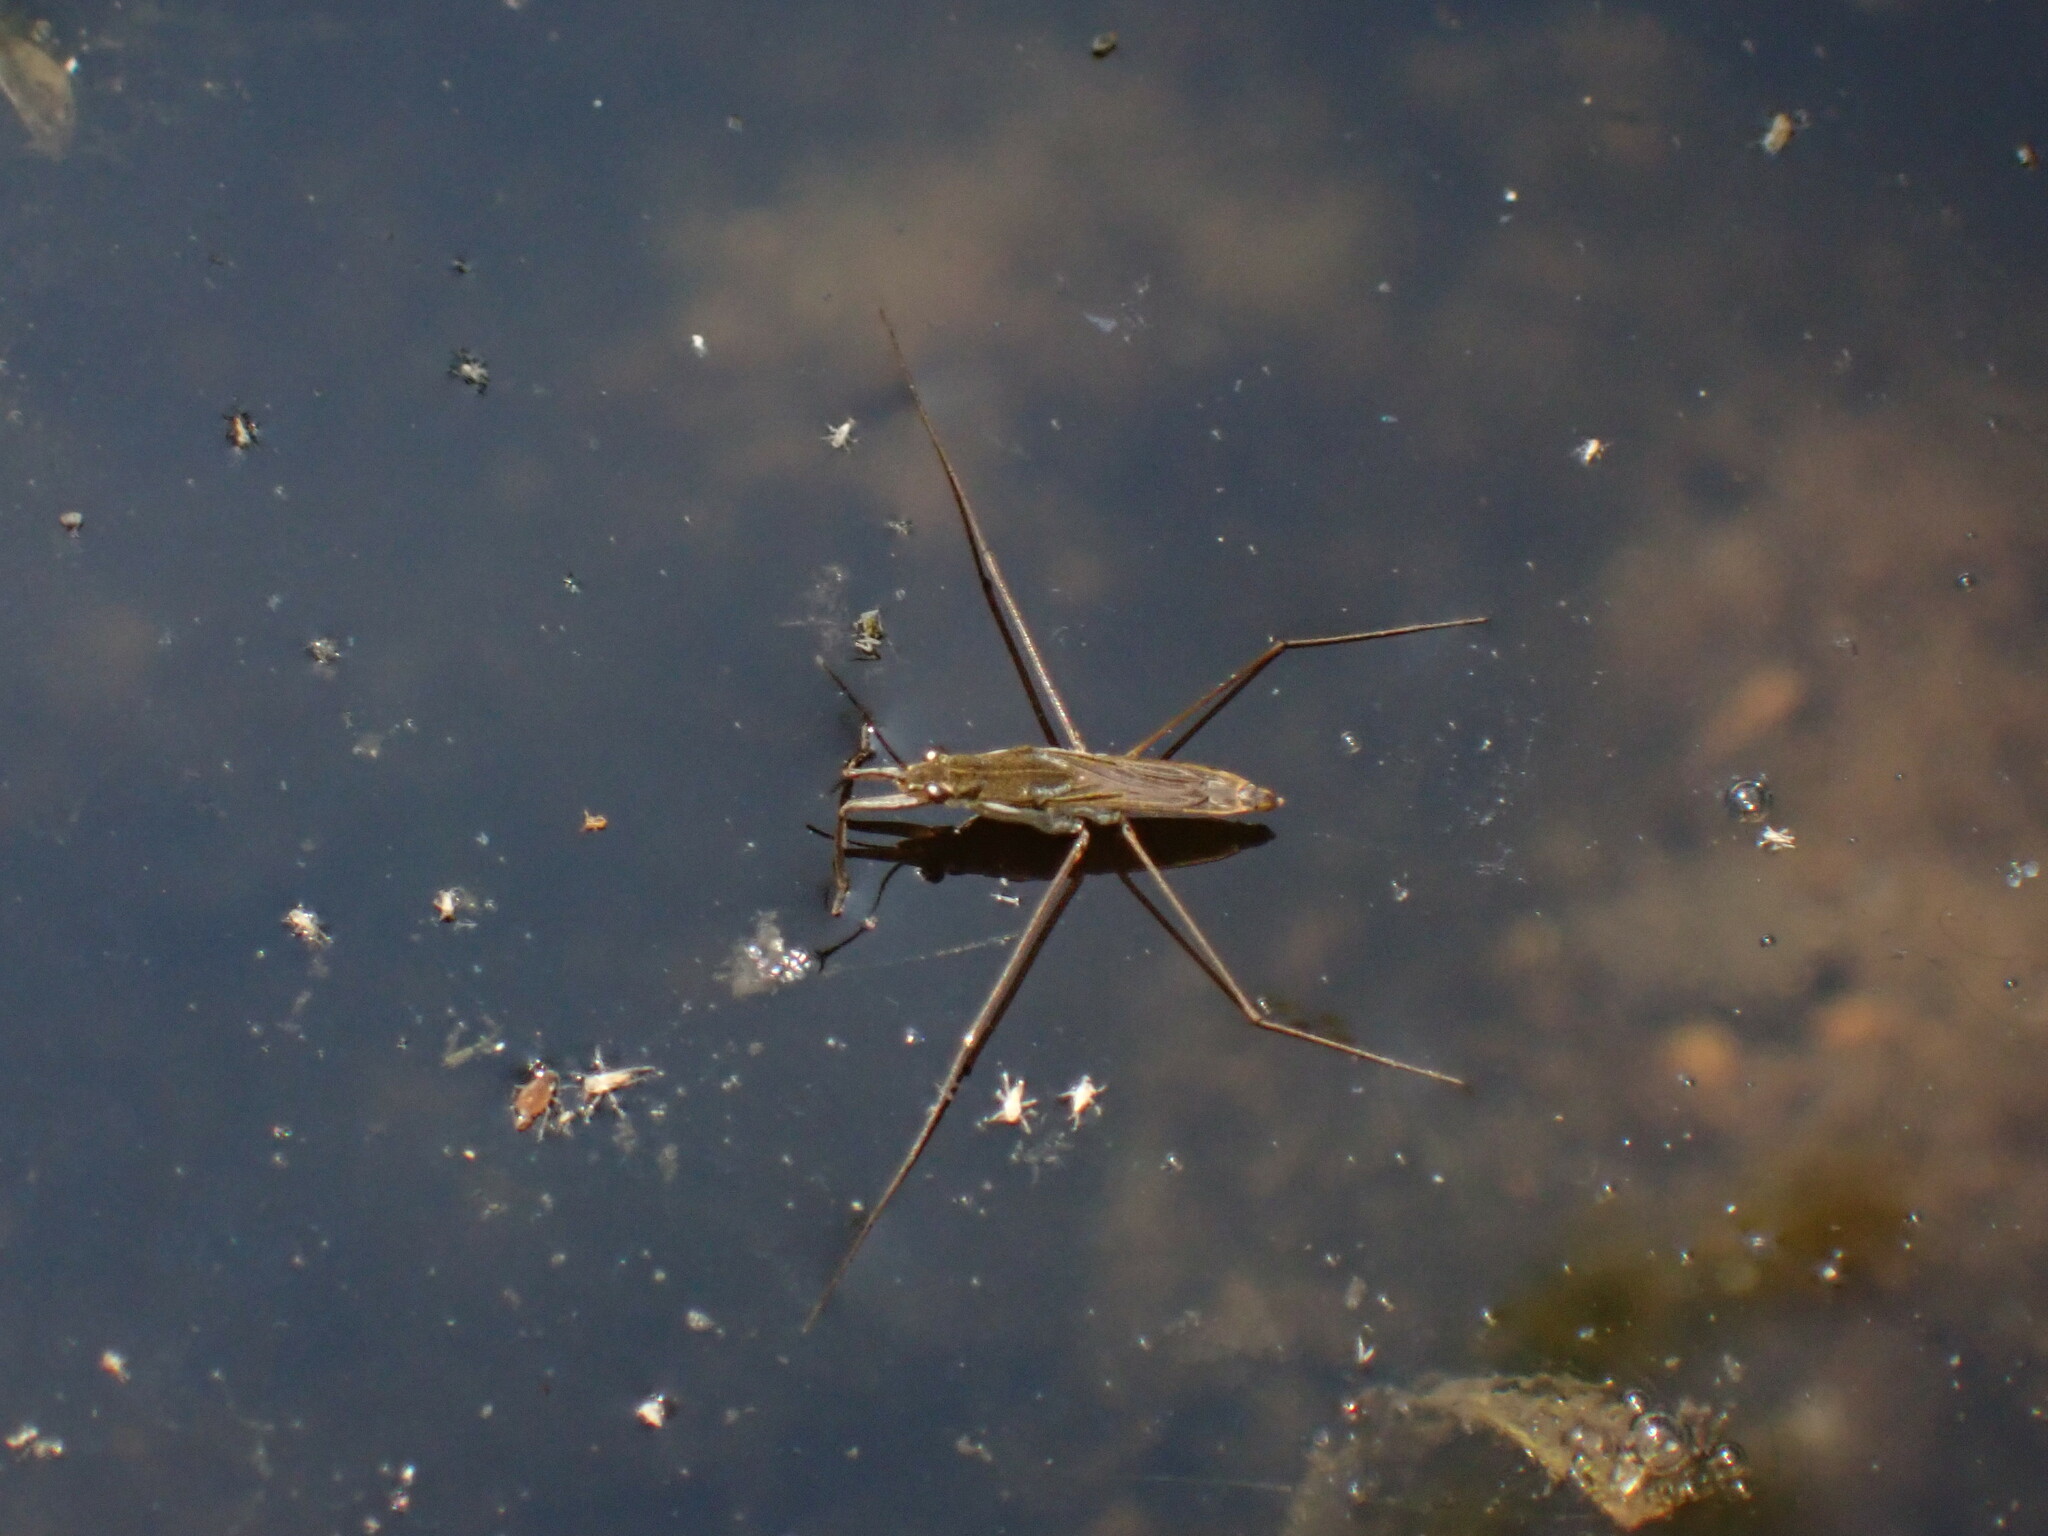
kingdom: Animalia
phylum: Arthropoda
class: Insecta
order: Hemiptera
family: Gerridae
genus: Gerris
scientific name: Gerris
